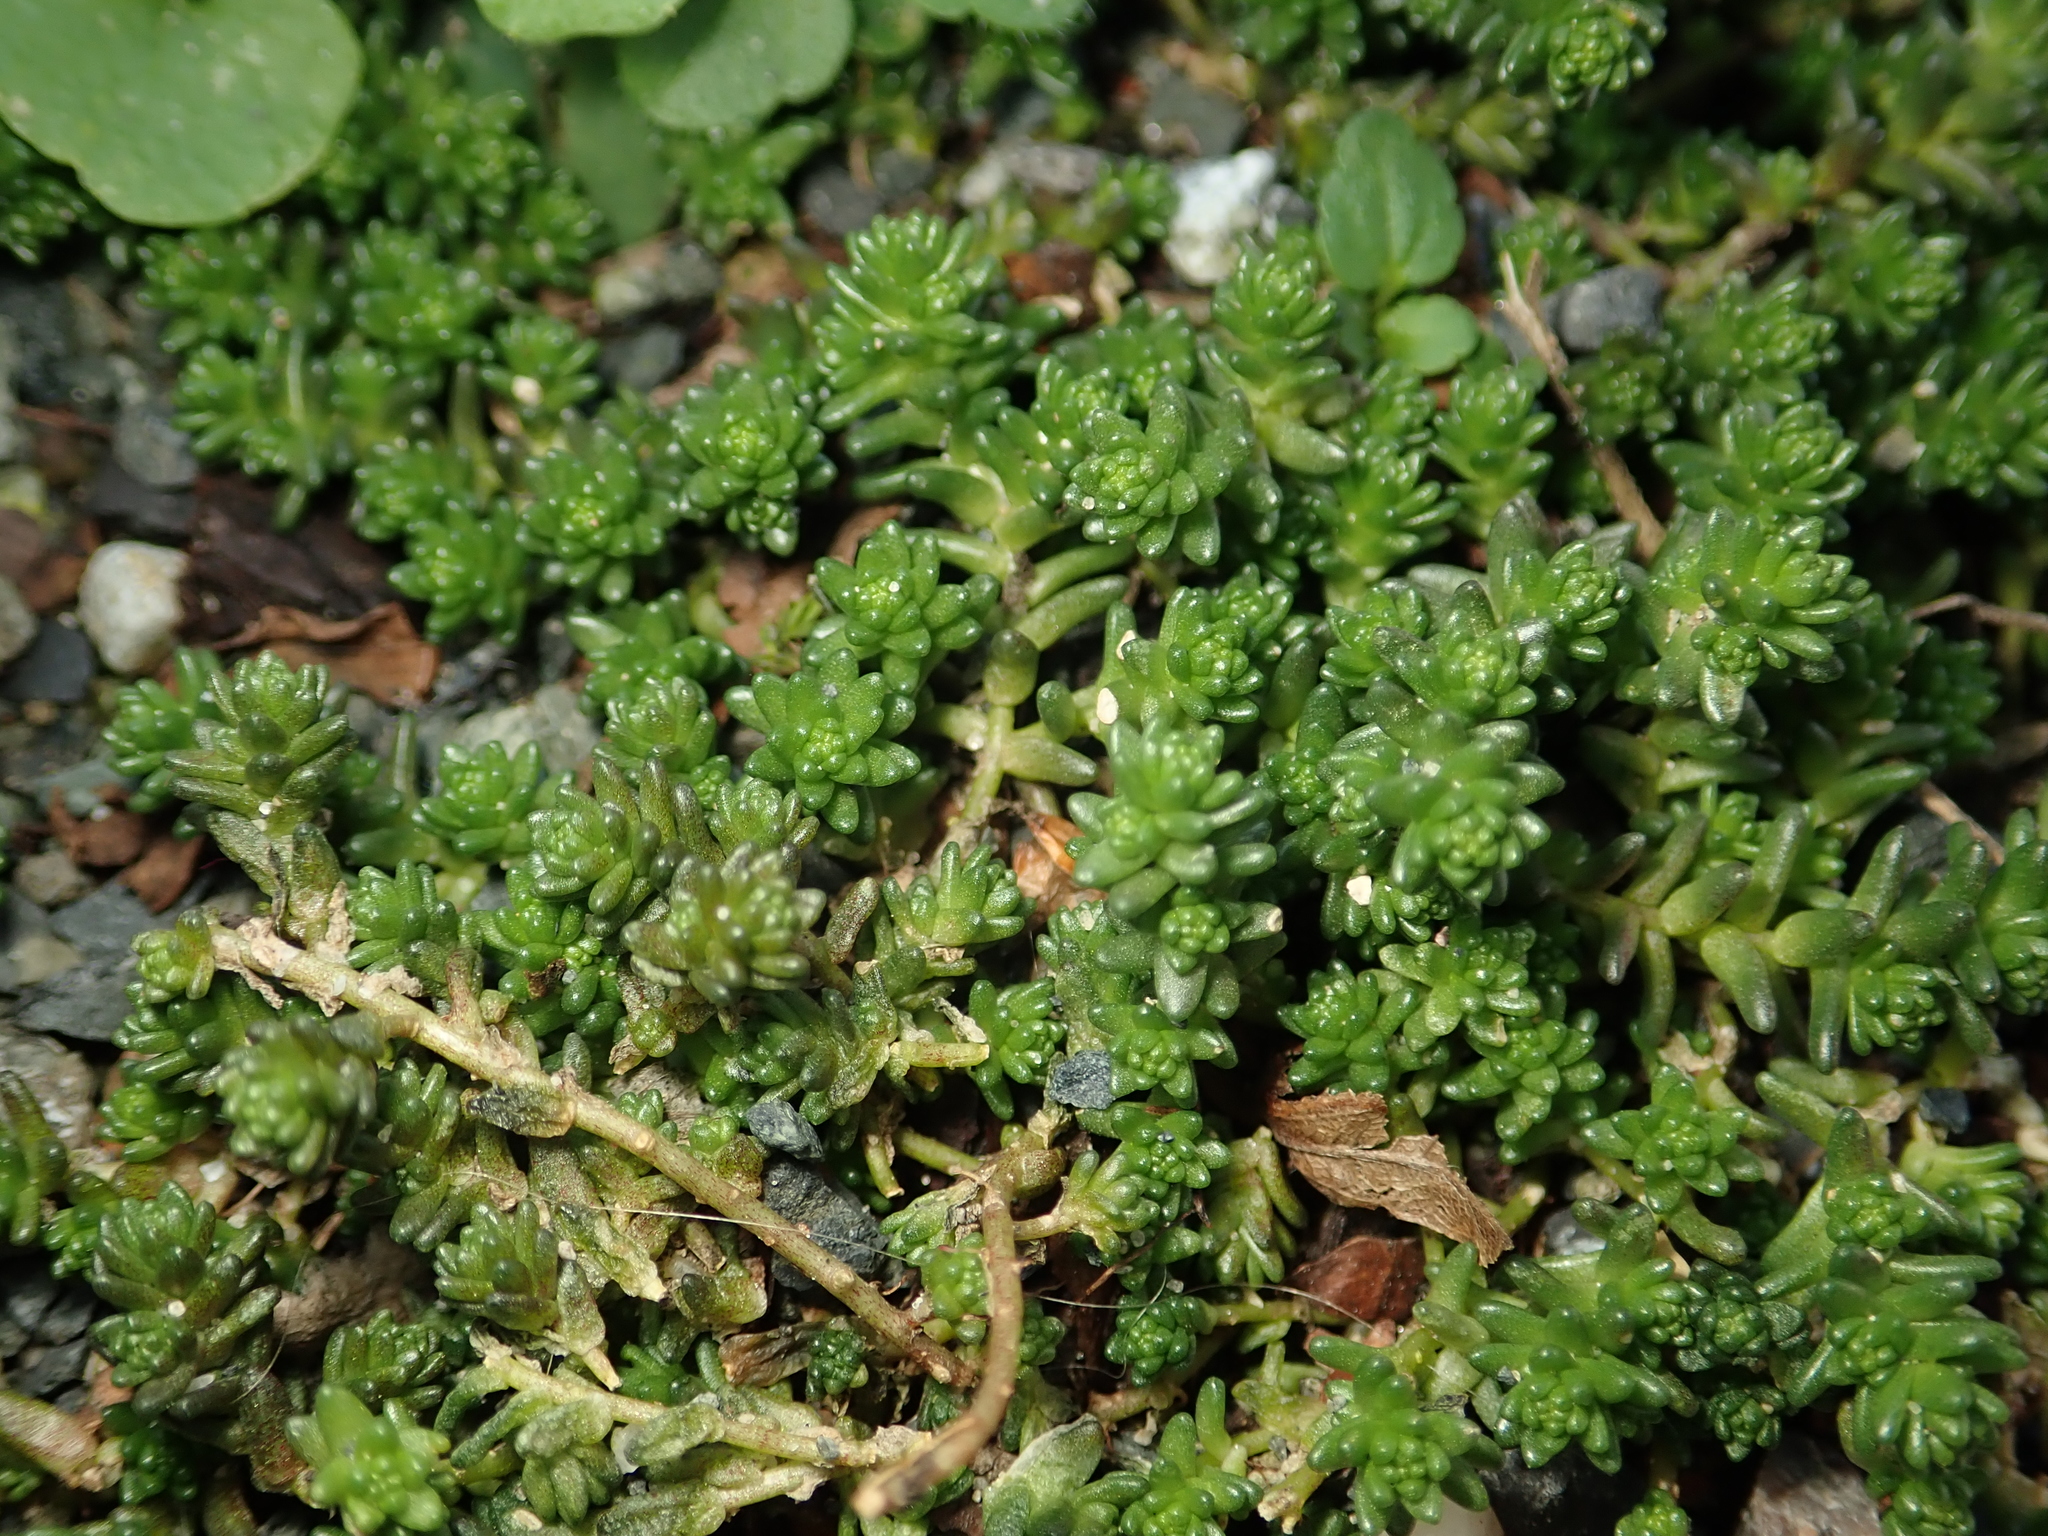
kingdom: Plantae
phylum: Tracheophyta
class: Magnoliopsida
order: Saxifragales
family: Crassulaceae
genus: Sedum
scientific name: Sedum acre
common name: Biting stonecrop
